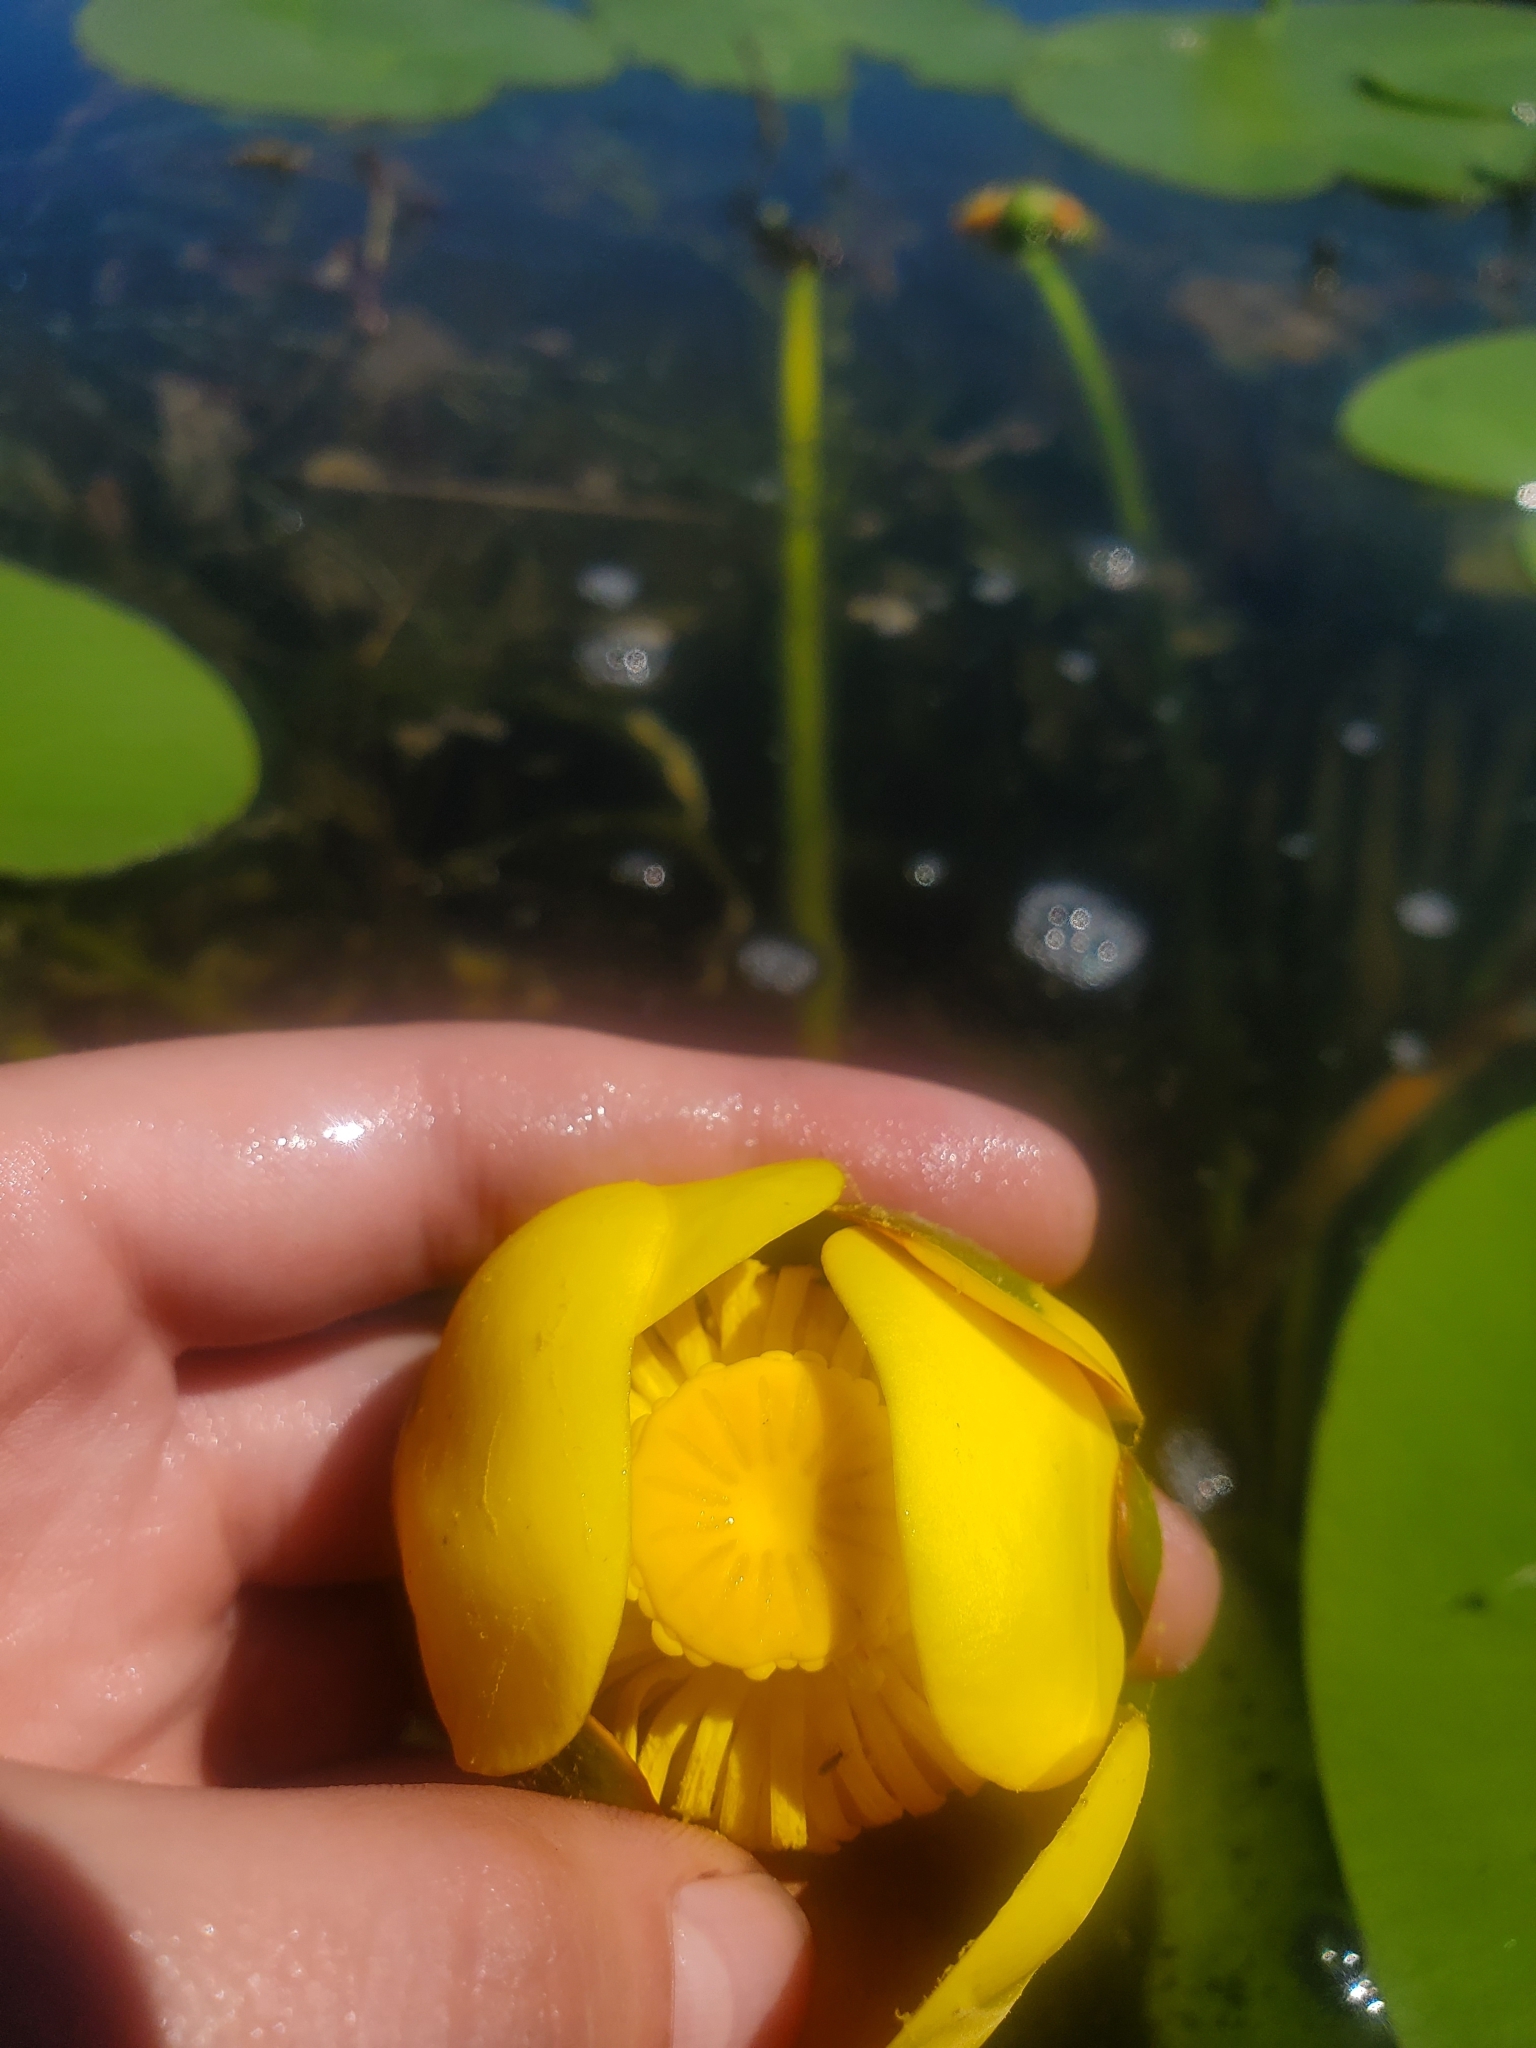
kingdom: Plantae
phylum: Tracheophyta
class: Magnoliopsida
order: Nymphaeales
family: Nymphaeaceae
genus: Nuphar
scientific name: Nuphar variegata
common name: Beaver-root
